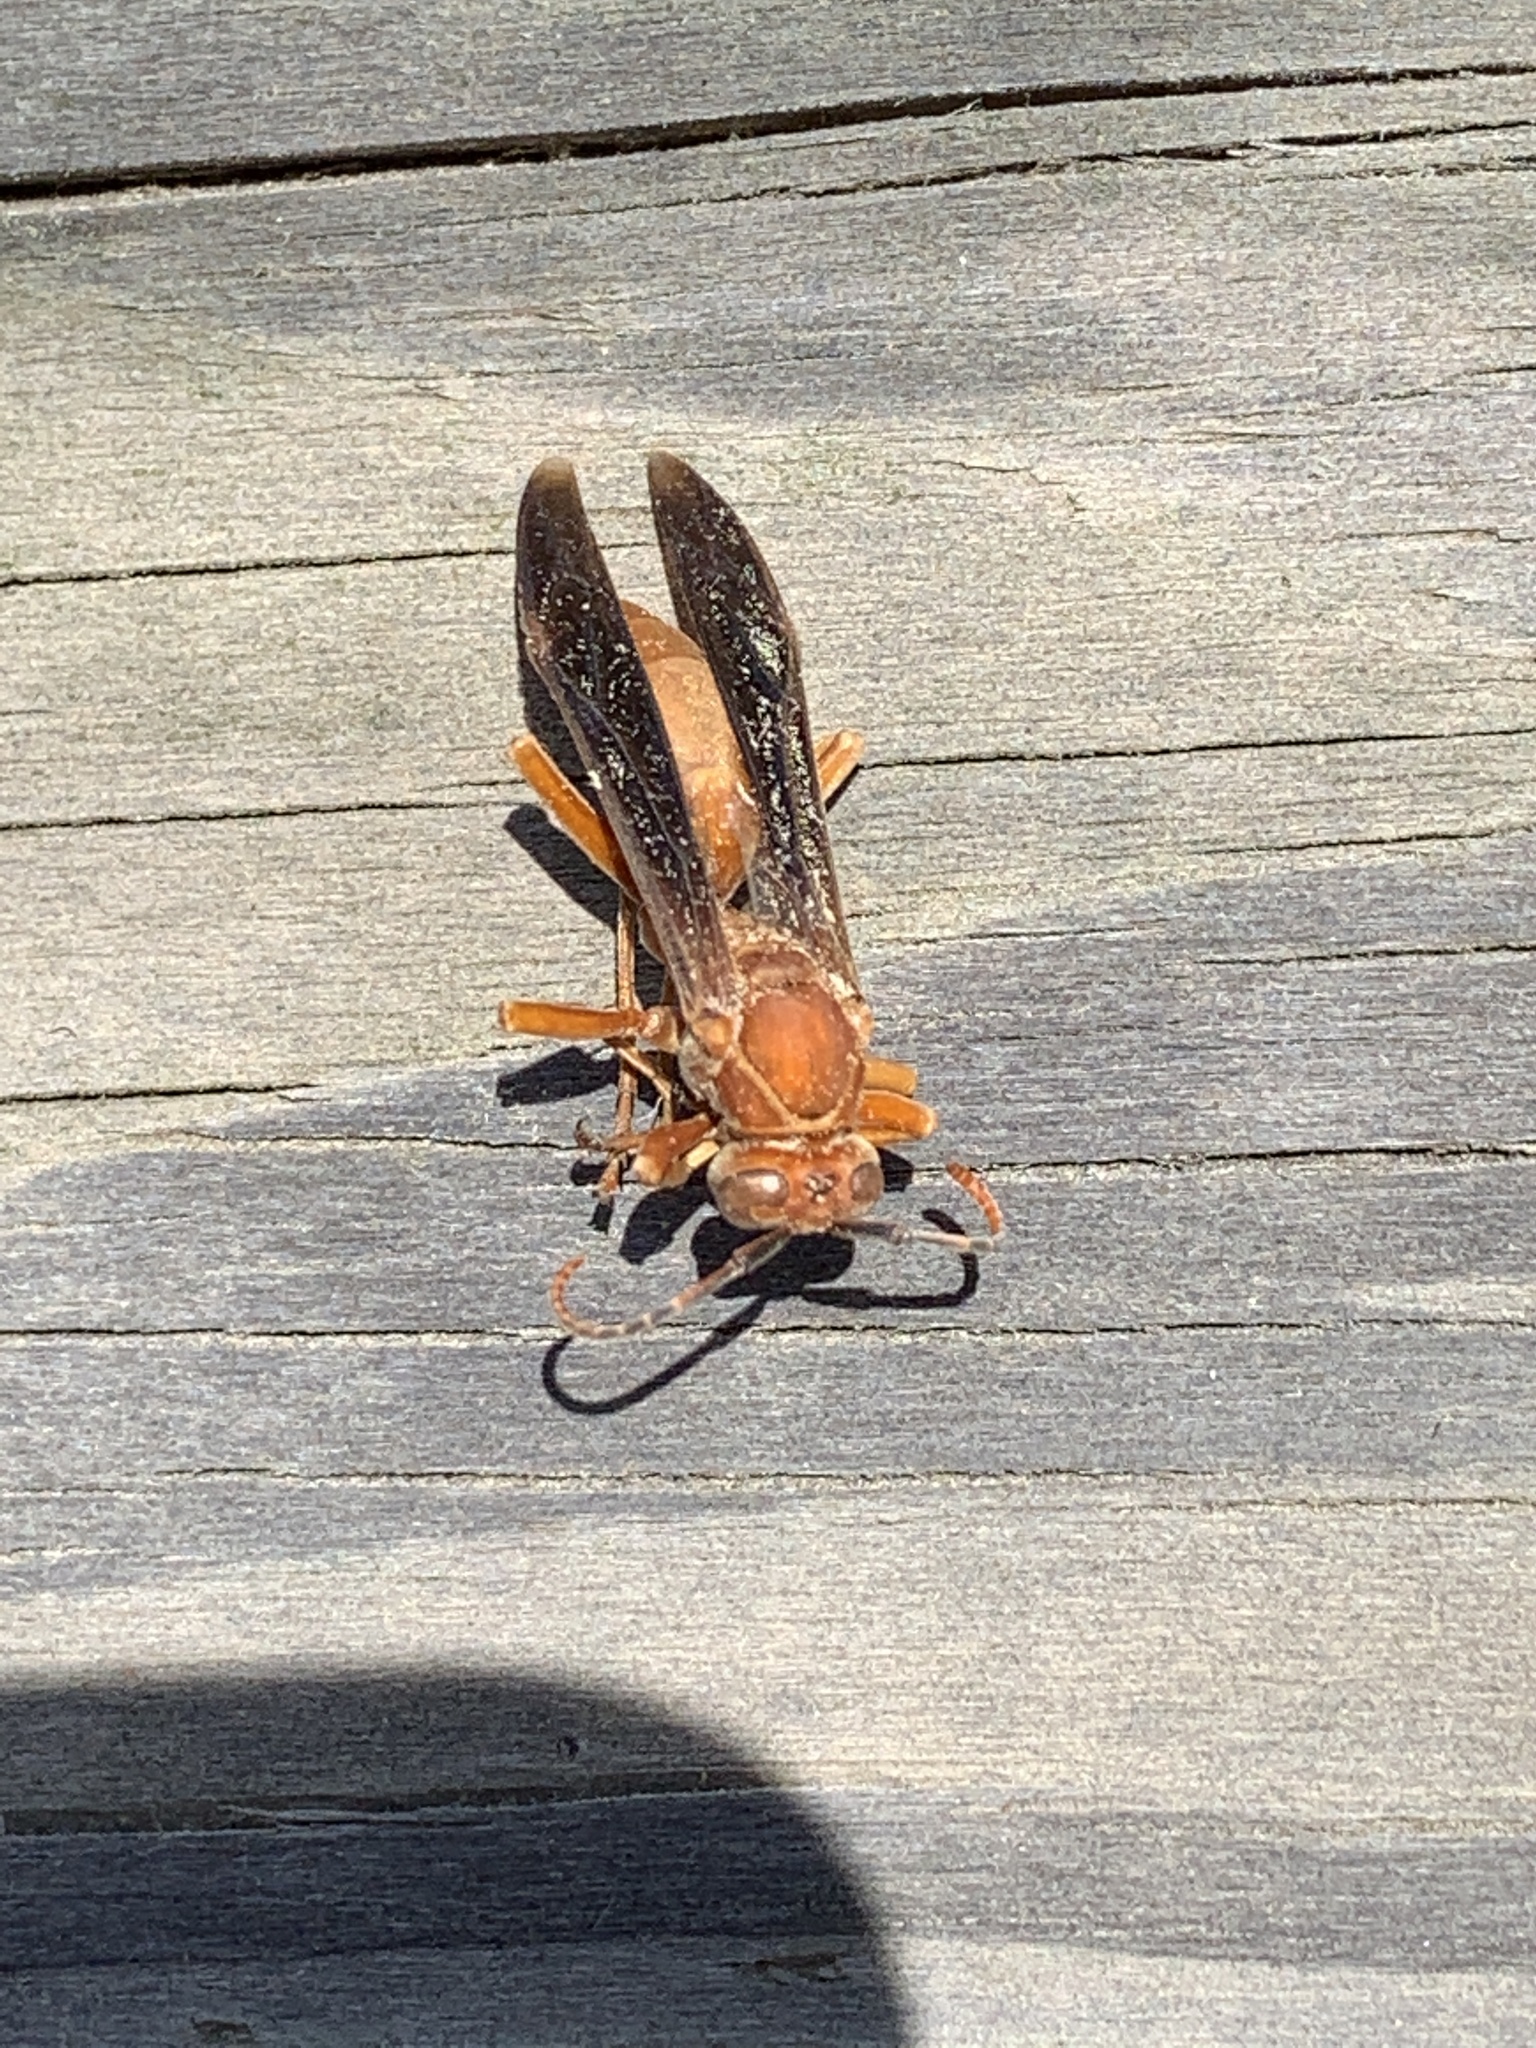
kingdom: Animalia
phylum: Arthropoda
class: Insecta
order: Hymenoptera
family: Vespidae
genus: Fuscopolistes
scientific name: Fuscopolistes
